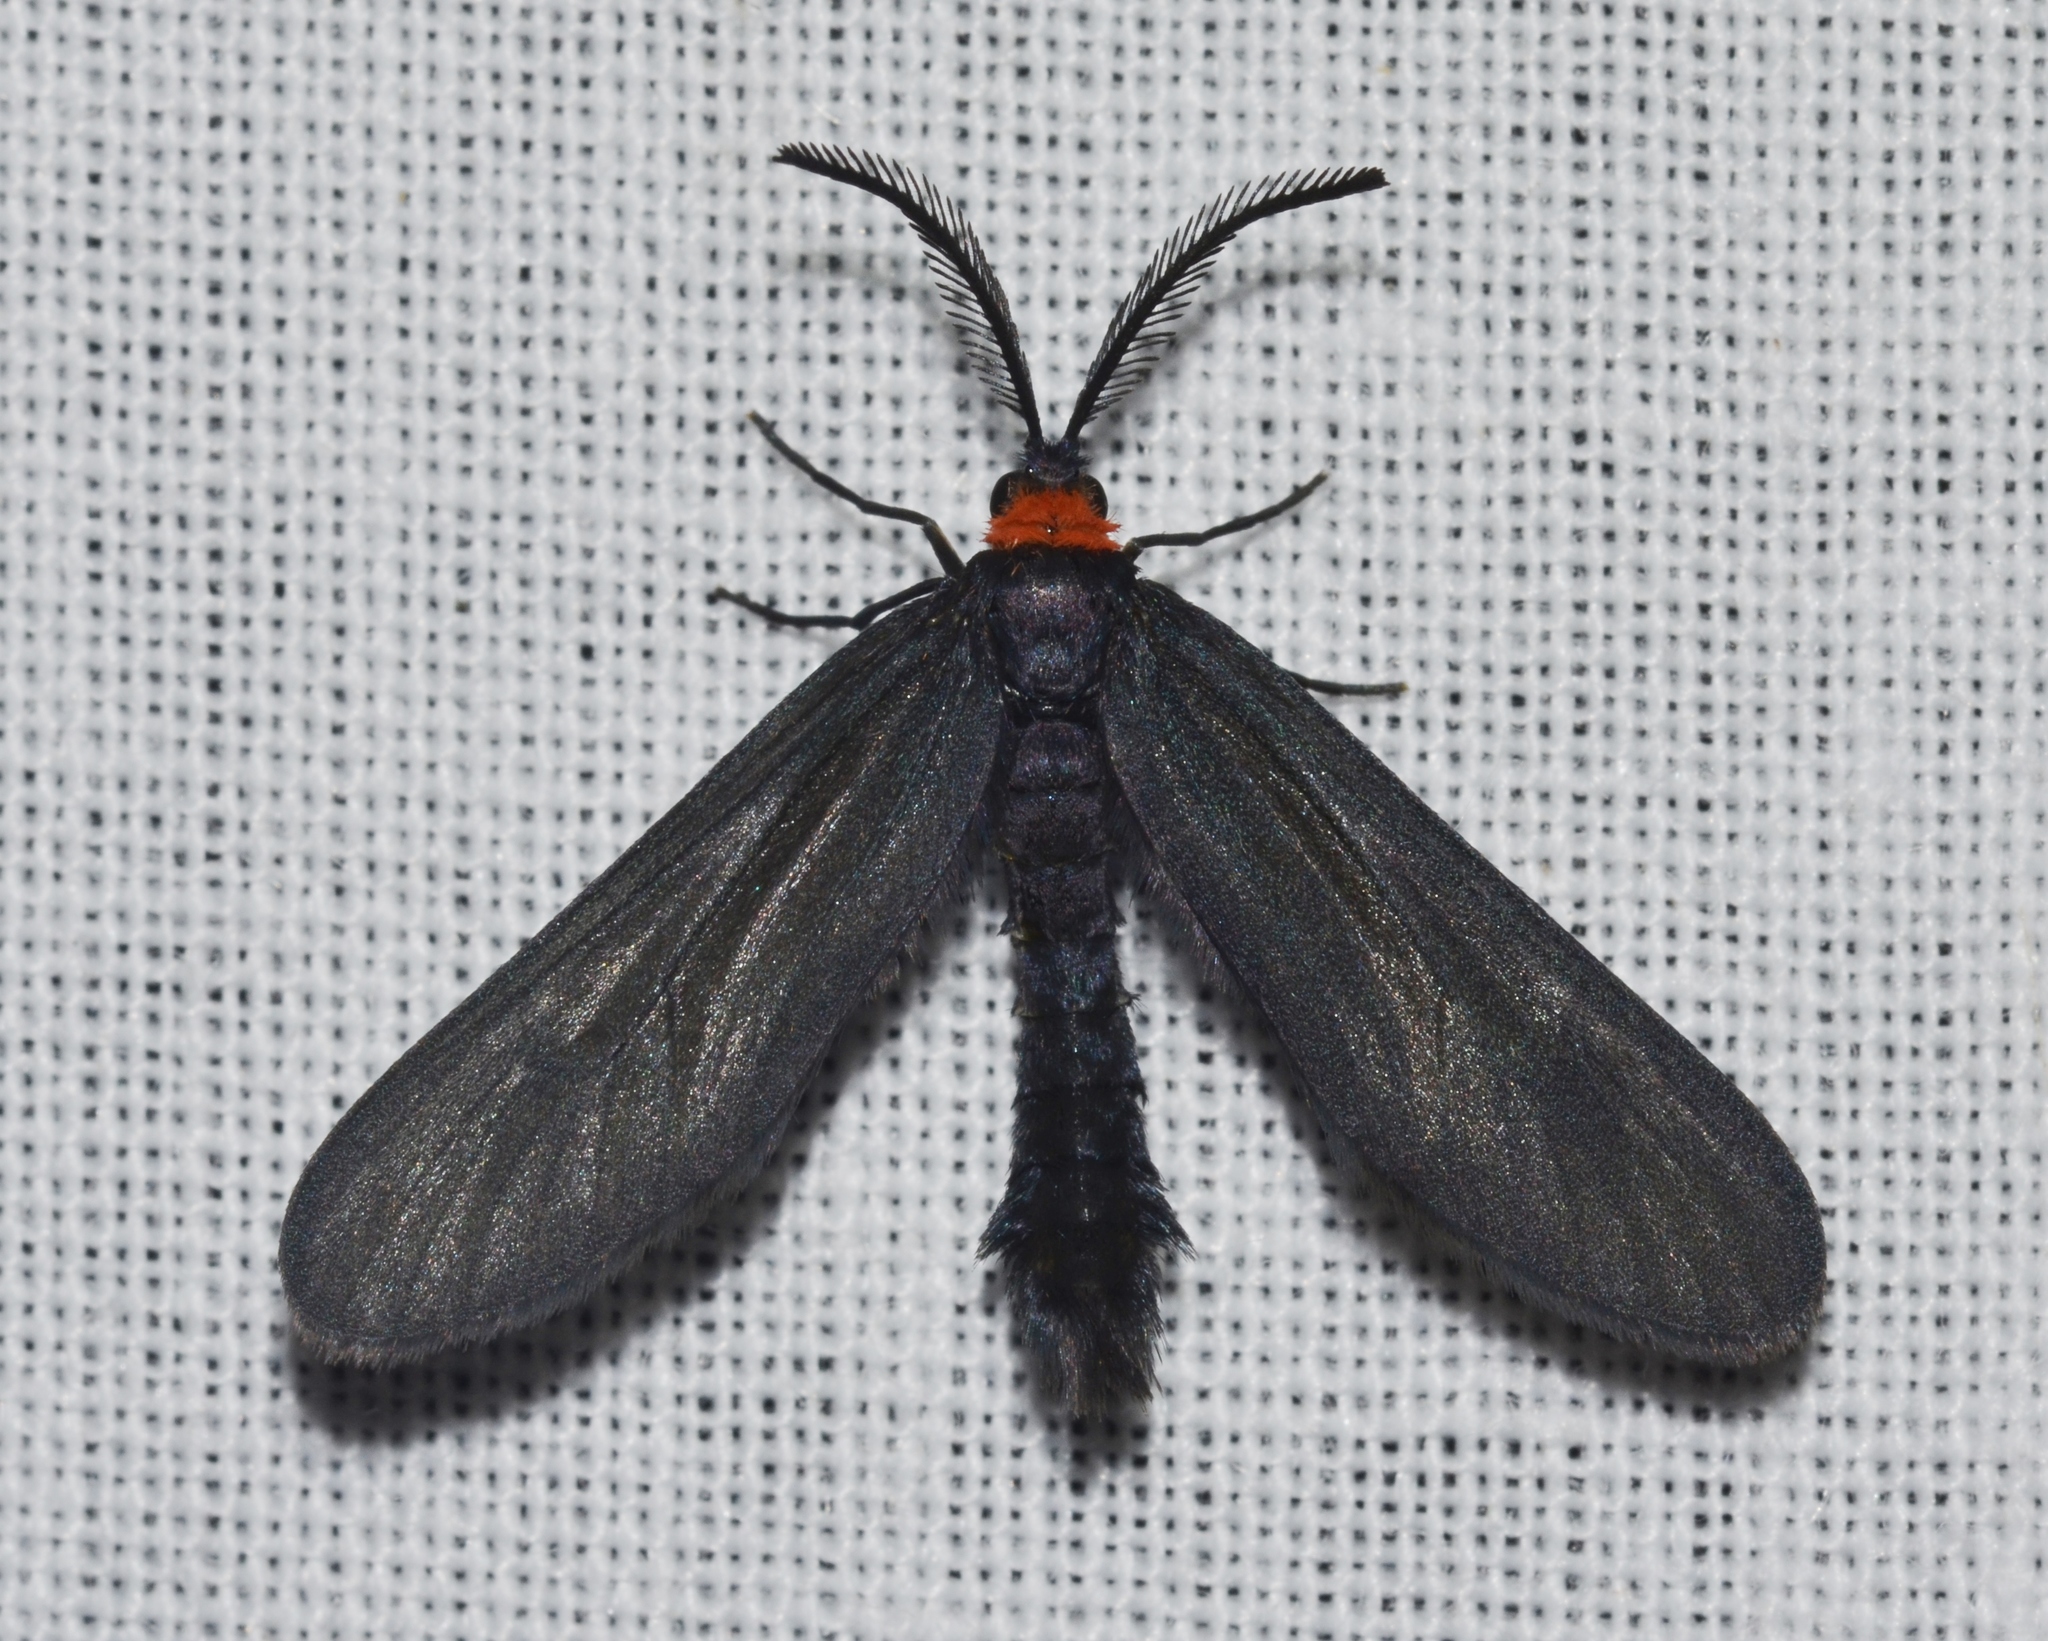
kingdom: Animalia
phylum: Arthropoda
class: Insecta
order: Lepidoptera
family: Zygaenidae
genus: Harrisina
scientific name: Harrisina americana
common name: Grapeleaf skeletonizer moth
